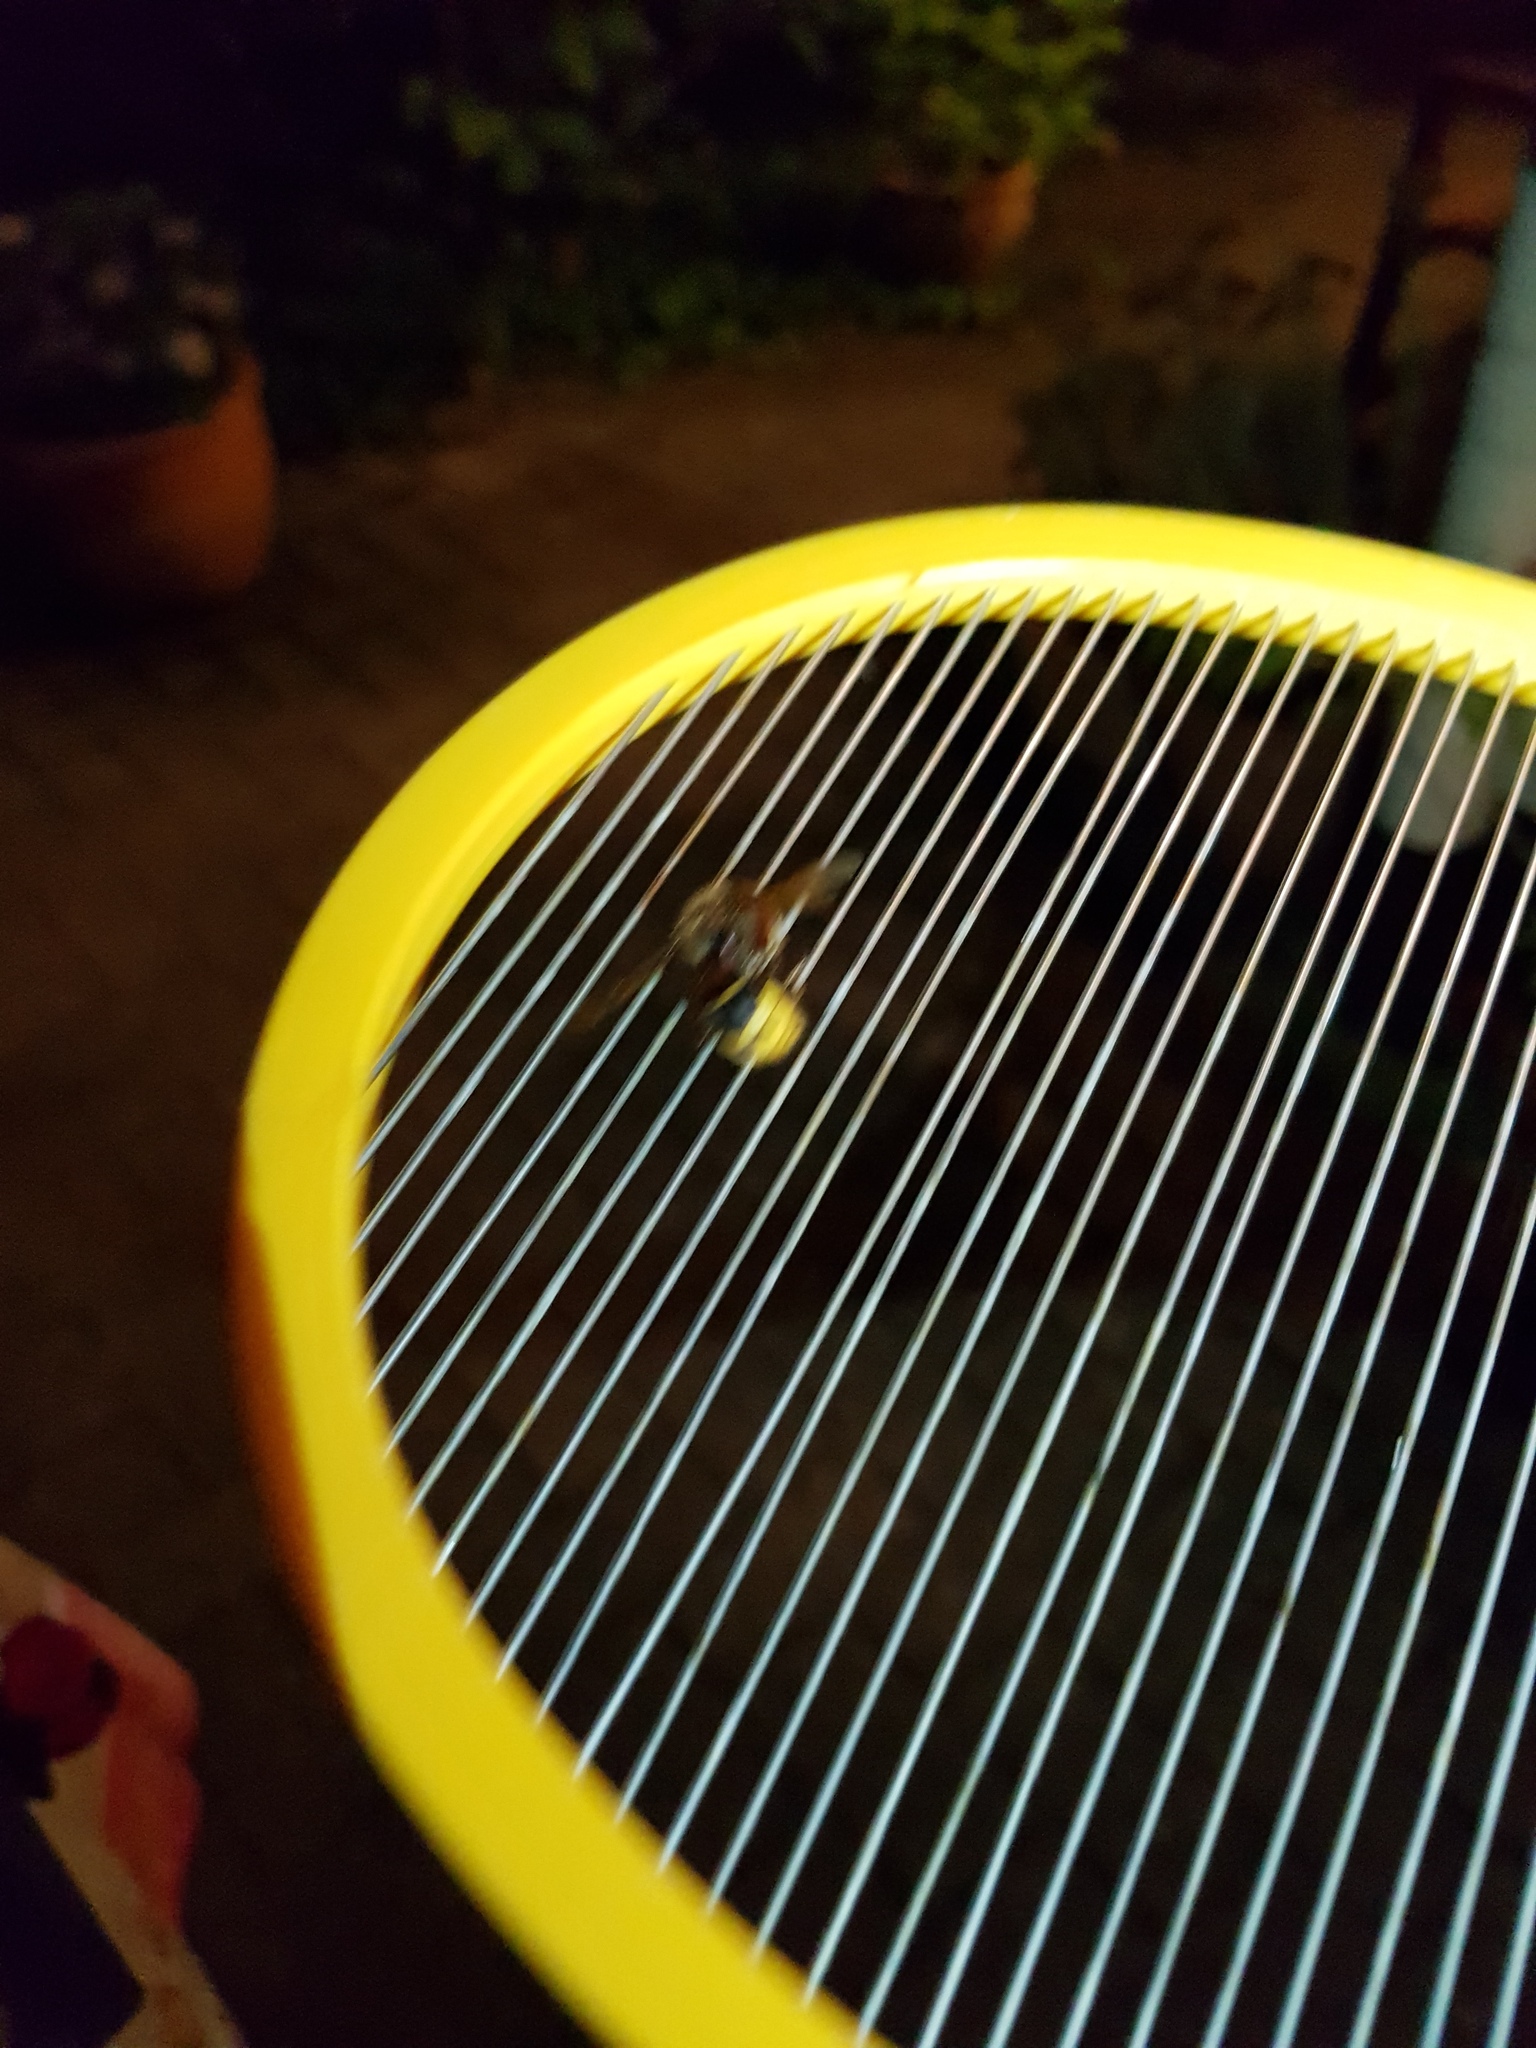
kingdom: Animalia
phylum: Arthropoda
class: Insecta
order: Hymenoptera
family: Vespidae
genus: Vespa
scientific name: Vespa crabro
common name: Hornet
